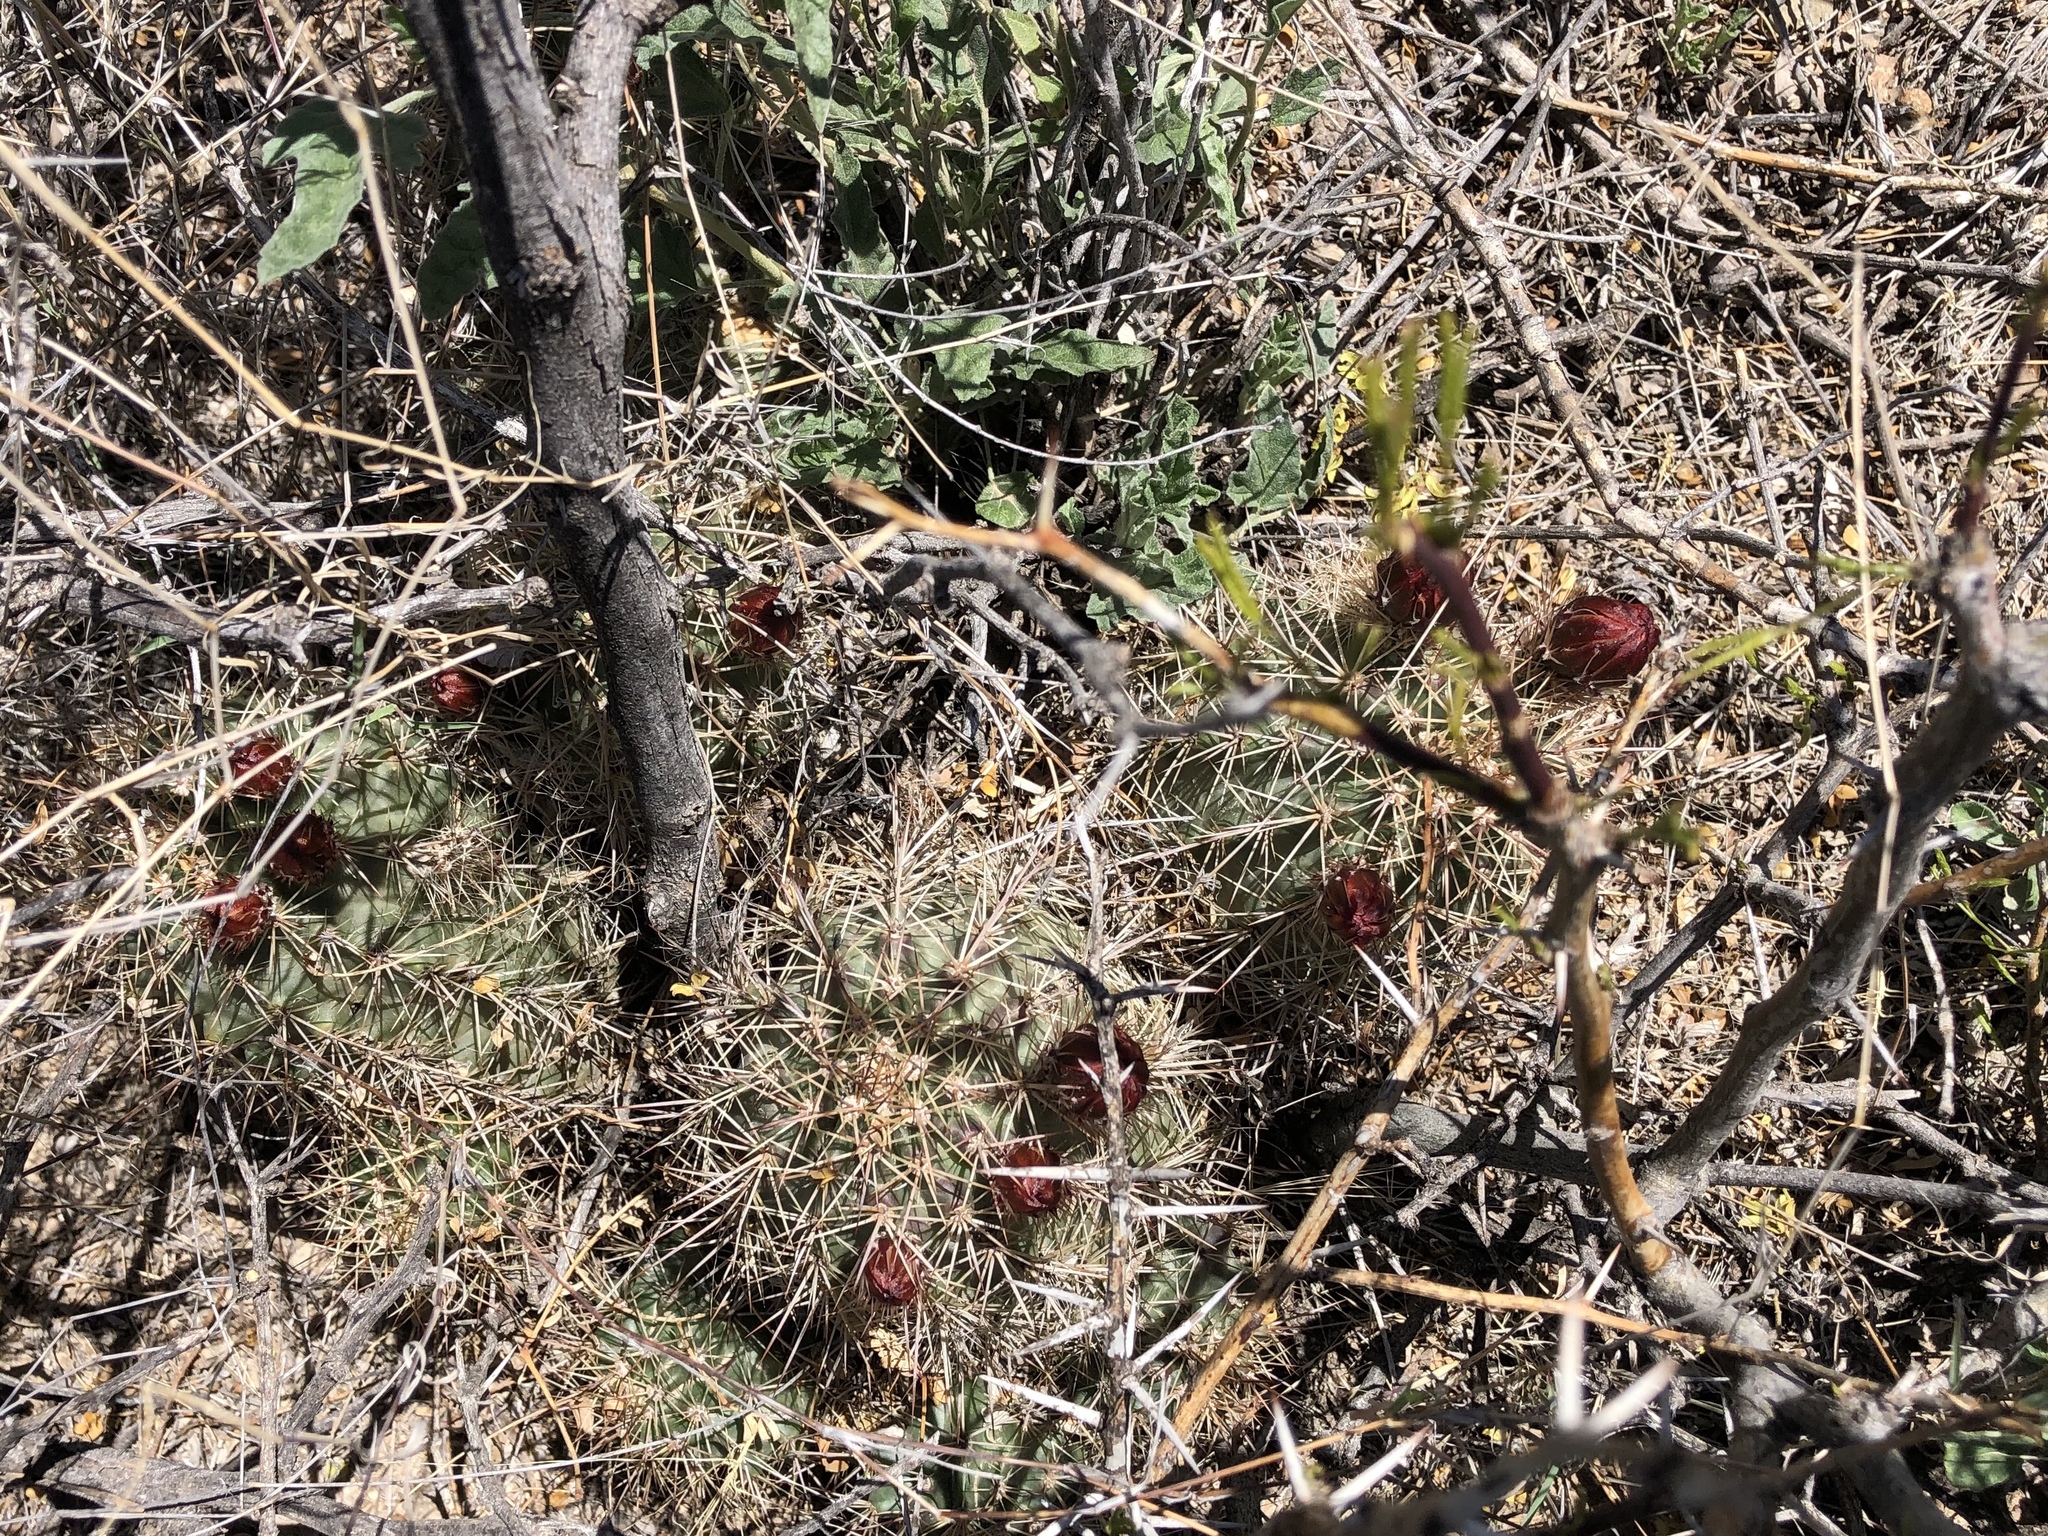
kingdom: Plantae
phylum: Tracheophyta
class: Magnoliopsida
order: Caryophyllales
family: Cactaceae
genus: Echinocereus
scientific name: Echinocereus coccineus
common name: Scarlet hedgehog cactus
